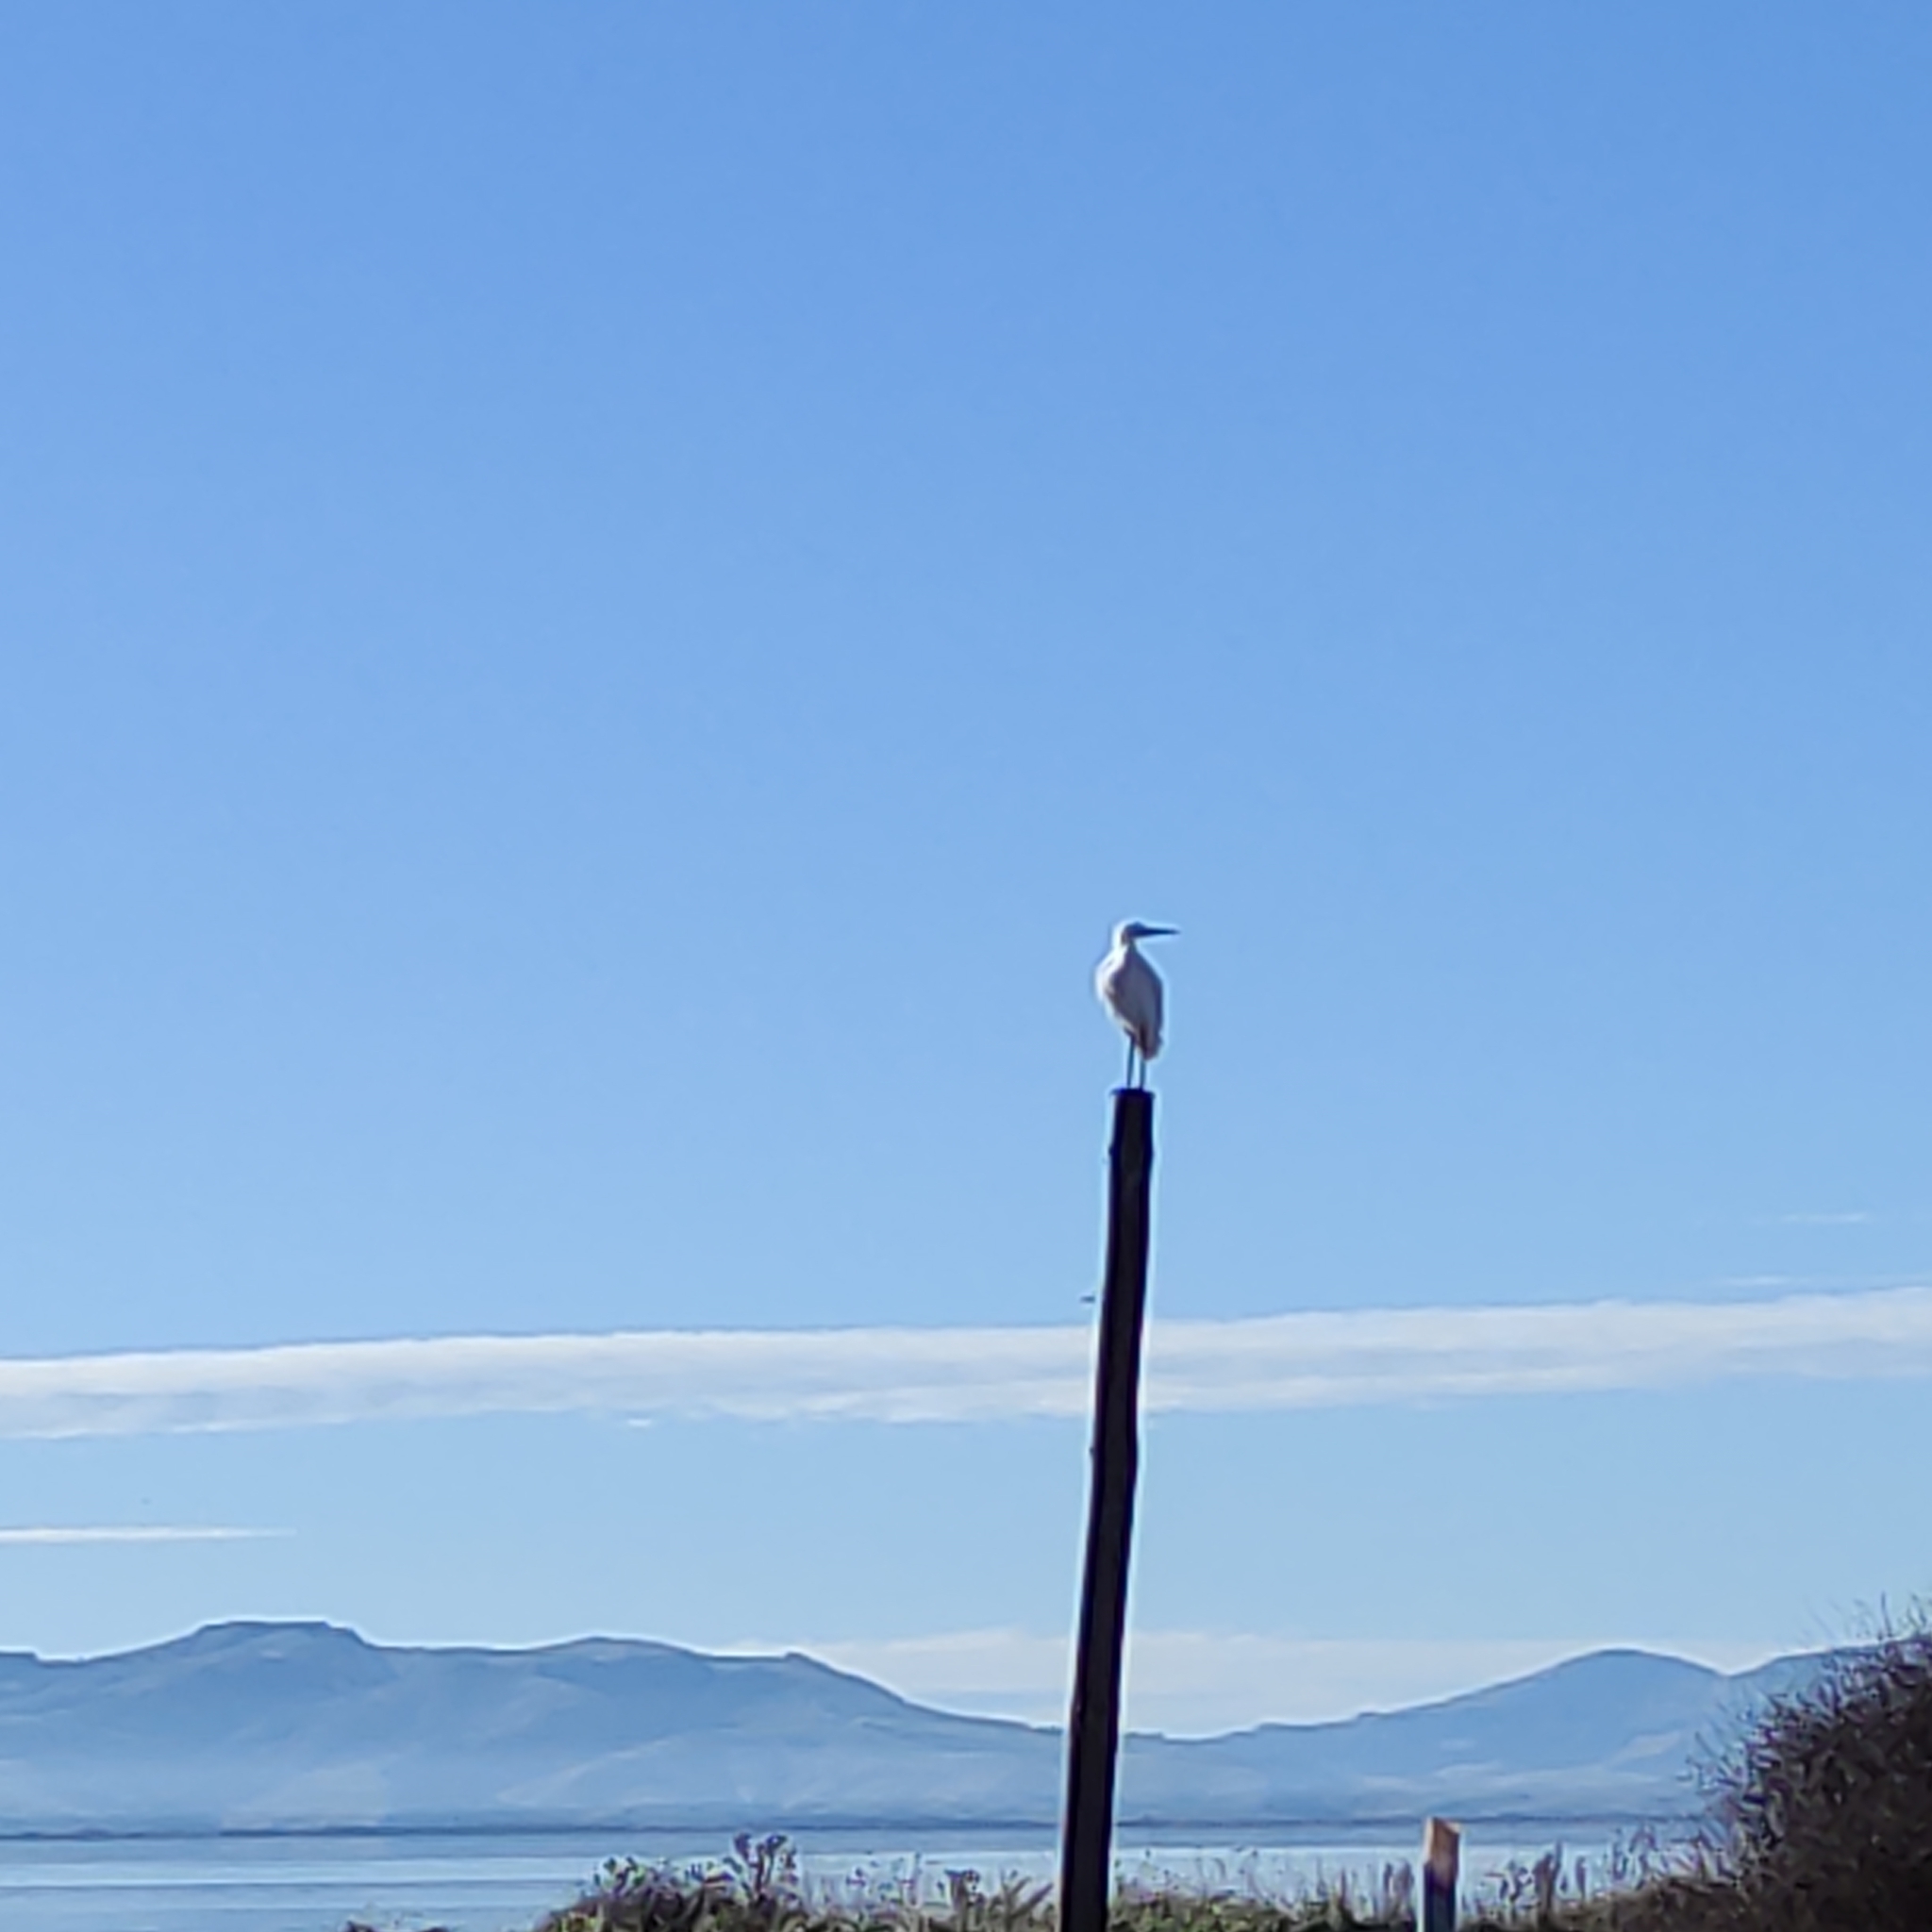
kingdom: Animalia
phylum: Chordata
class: Aves
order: Pelecaniformes
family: Ardeidae
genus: Ardea
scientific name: Ardea modesta
